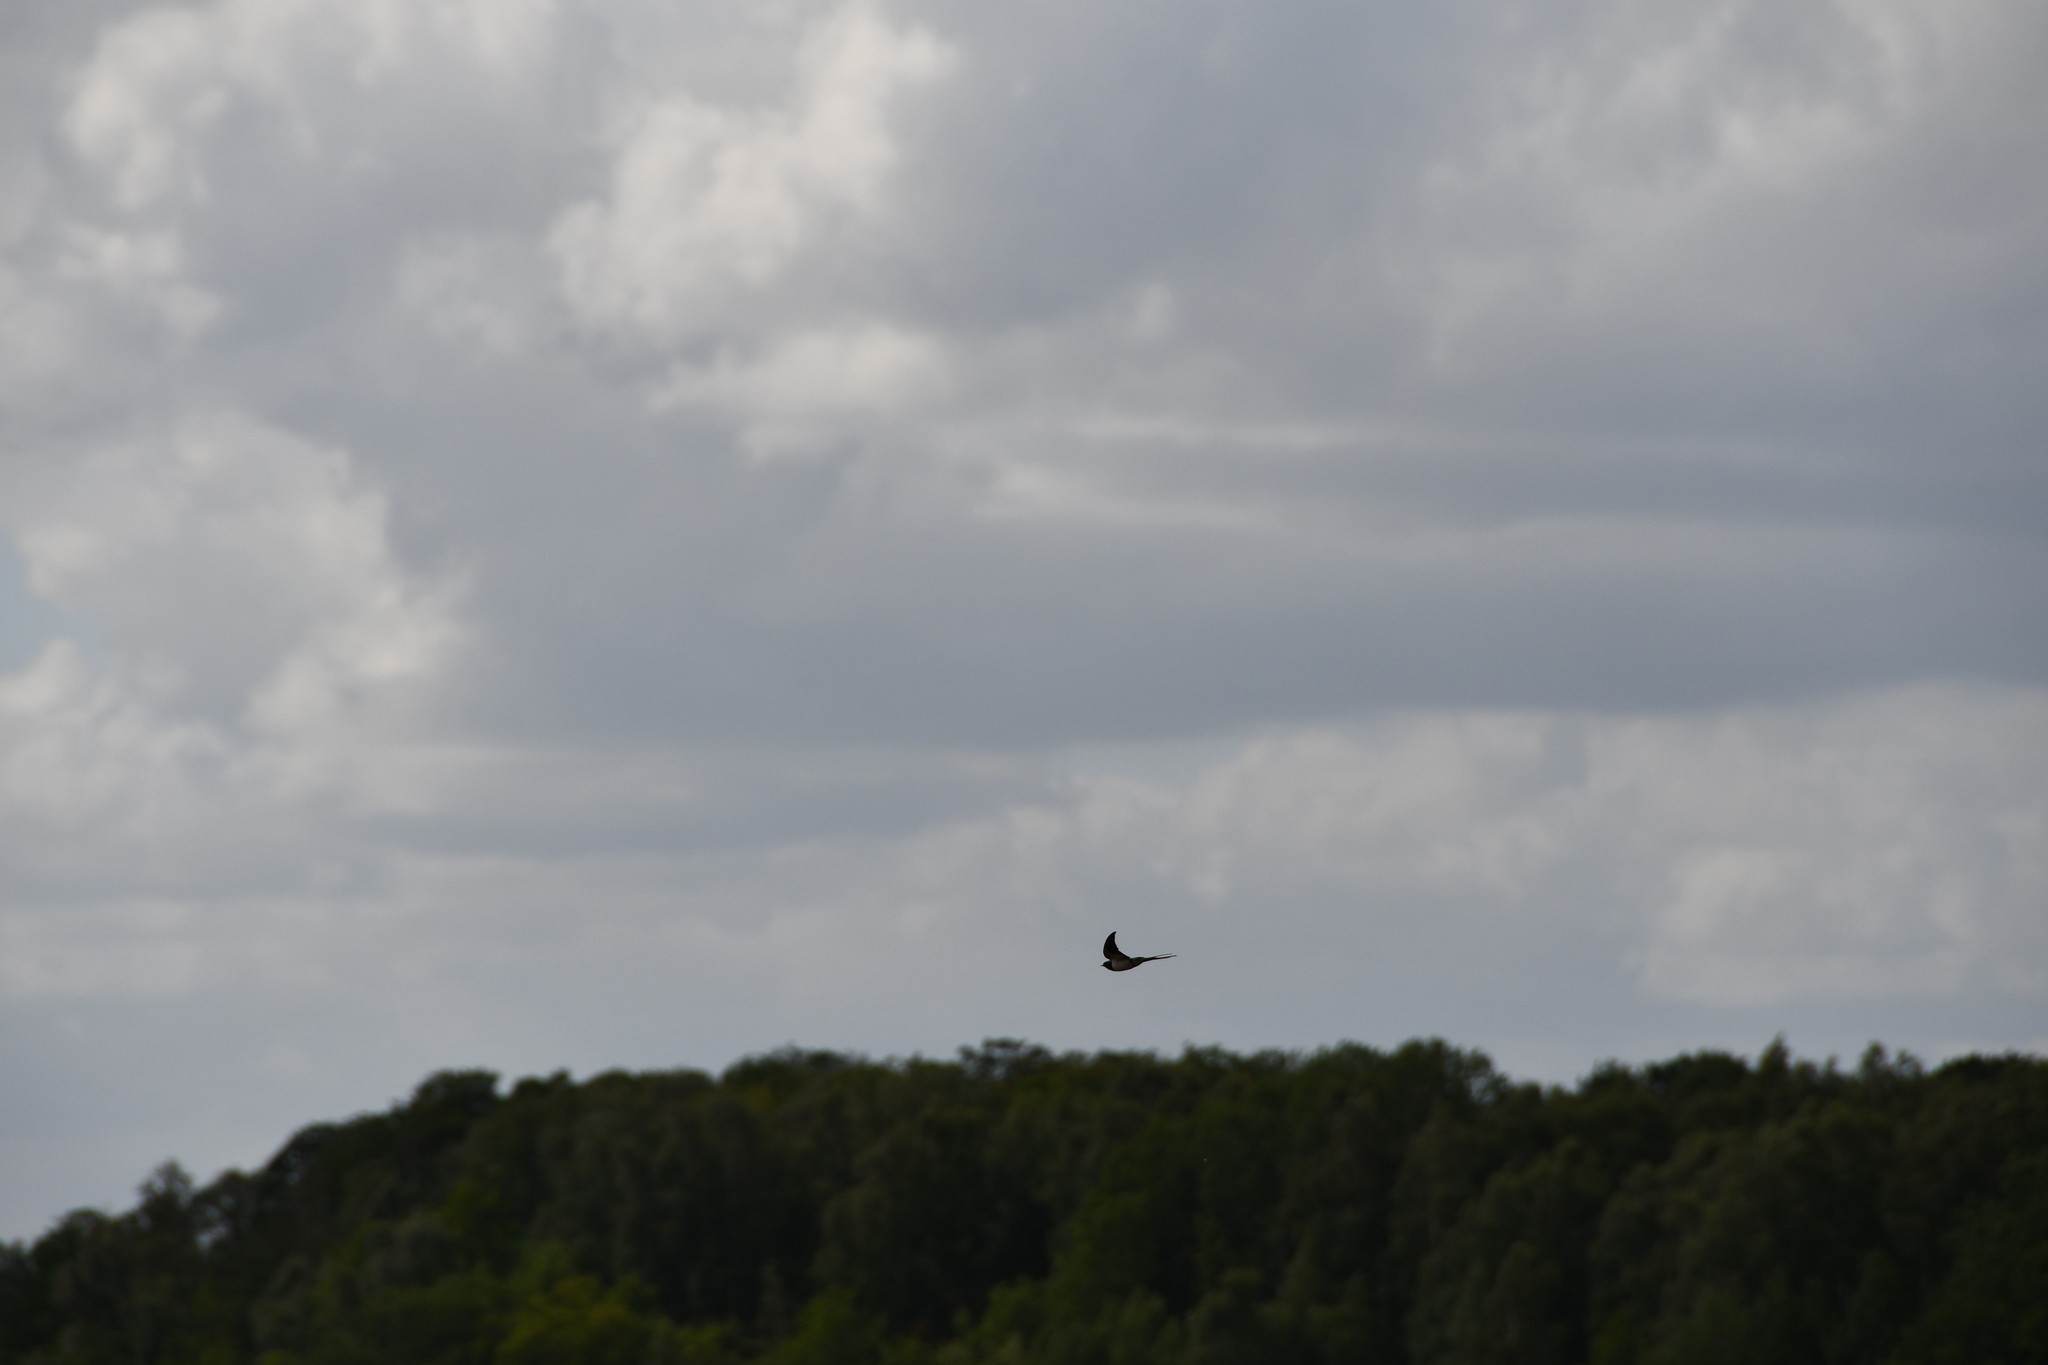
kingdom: Animalia
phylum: Chordata
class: Aves
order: Passeriformes
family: Hirundinidae
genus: Hirundo
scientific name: Hirundo rustica
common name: Barn swallow
